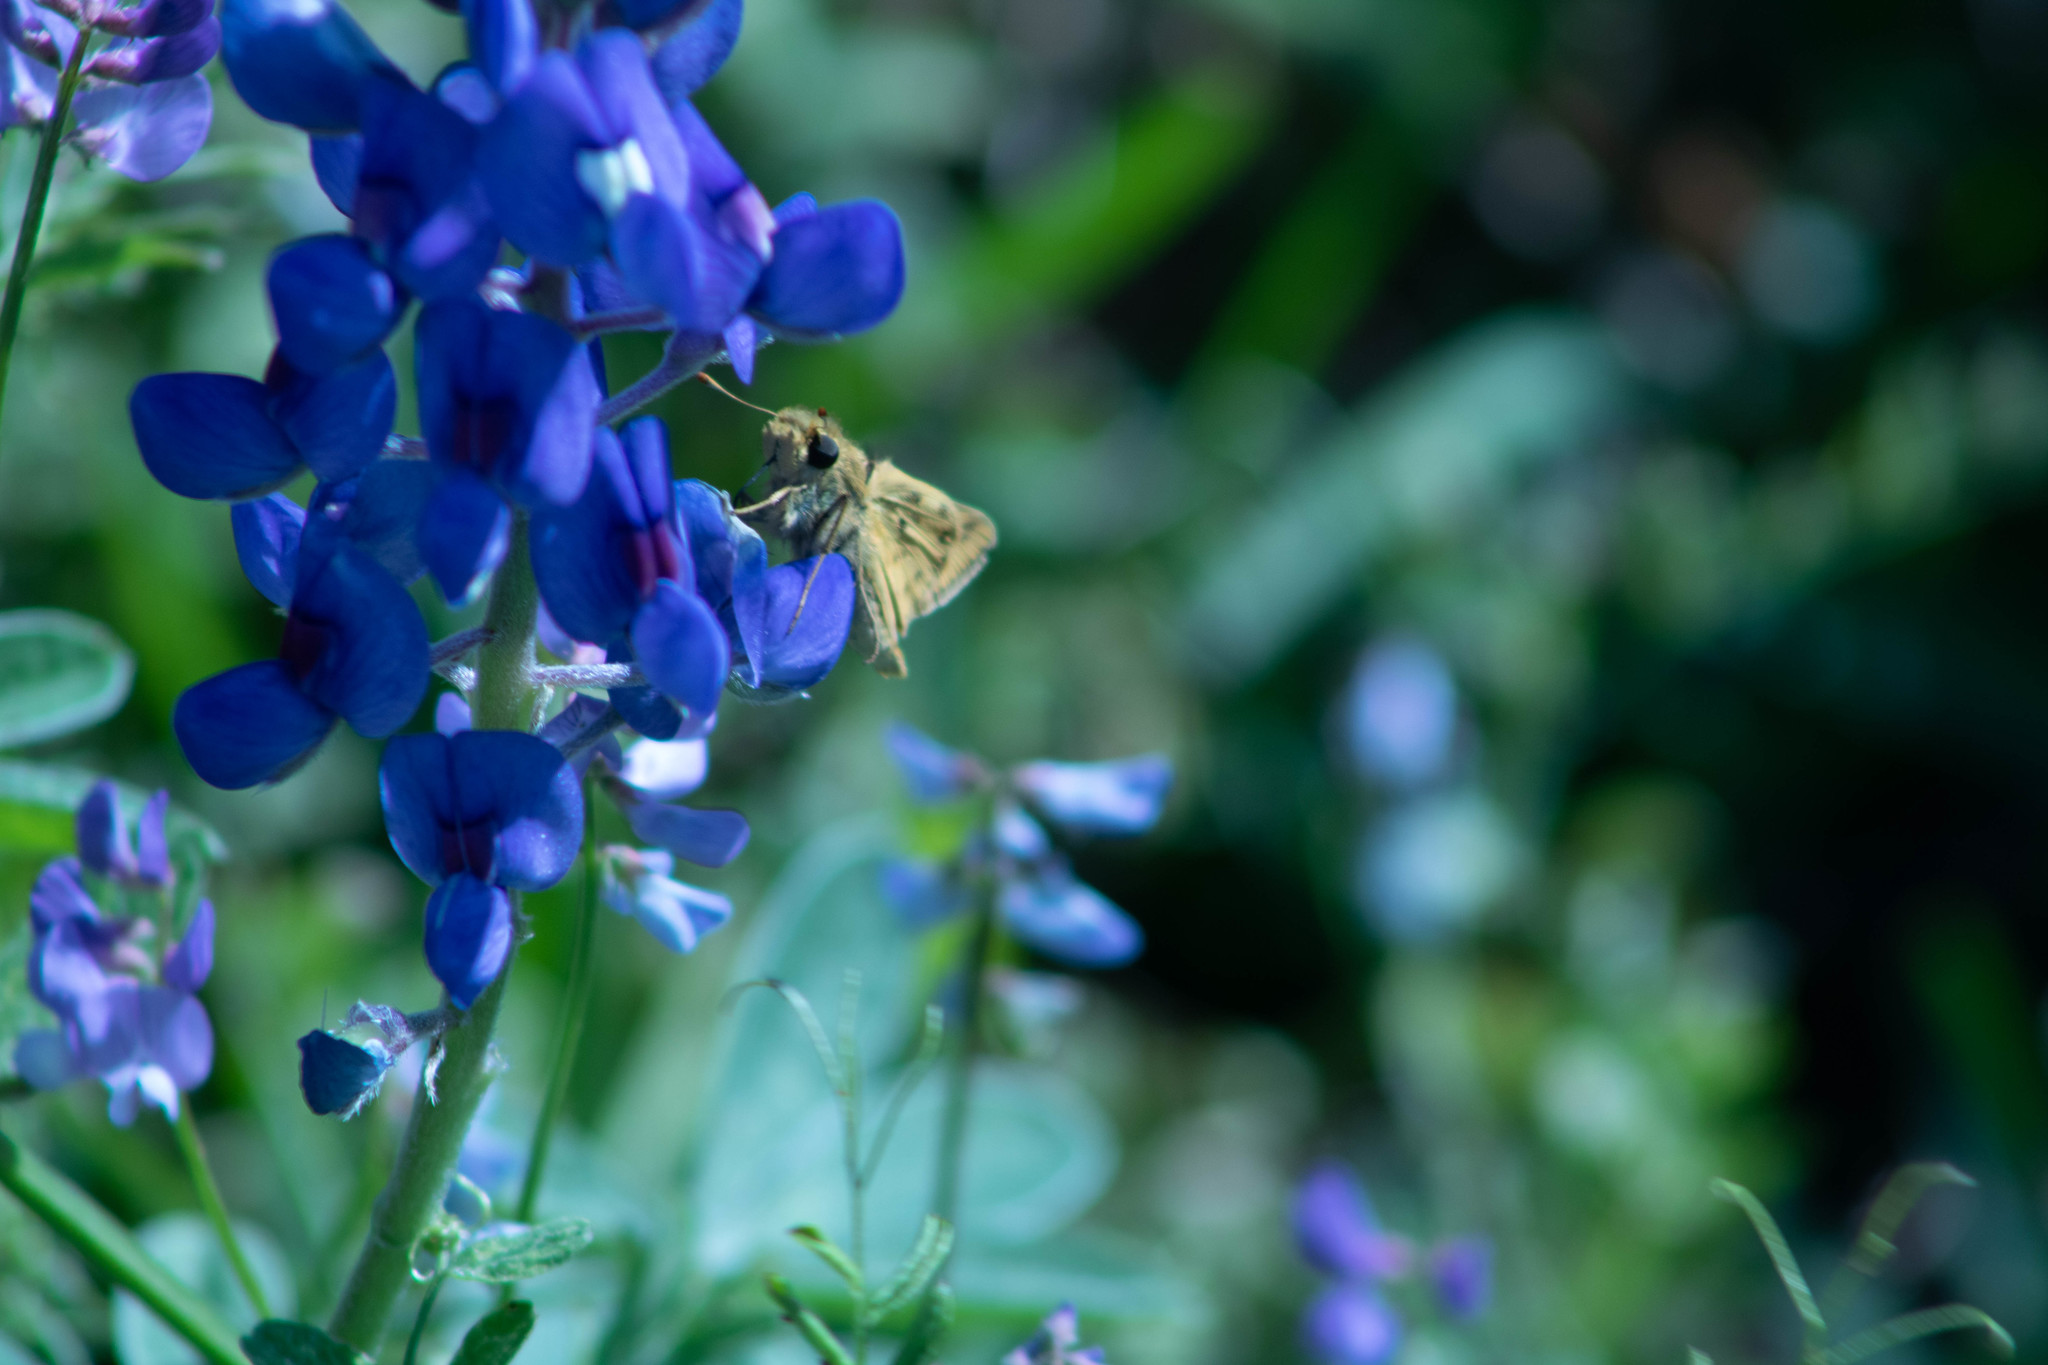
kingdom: Animalia
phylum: Arthropoda
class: Insecta
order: Lepidoptera
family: Hesperiidae
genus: Hylephila
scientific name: Hylephila phyleus
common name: Fiery skipper
